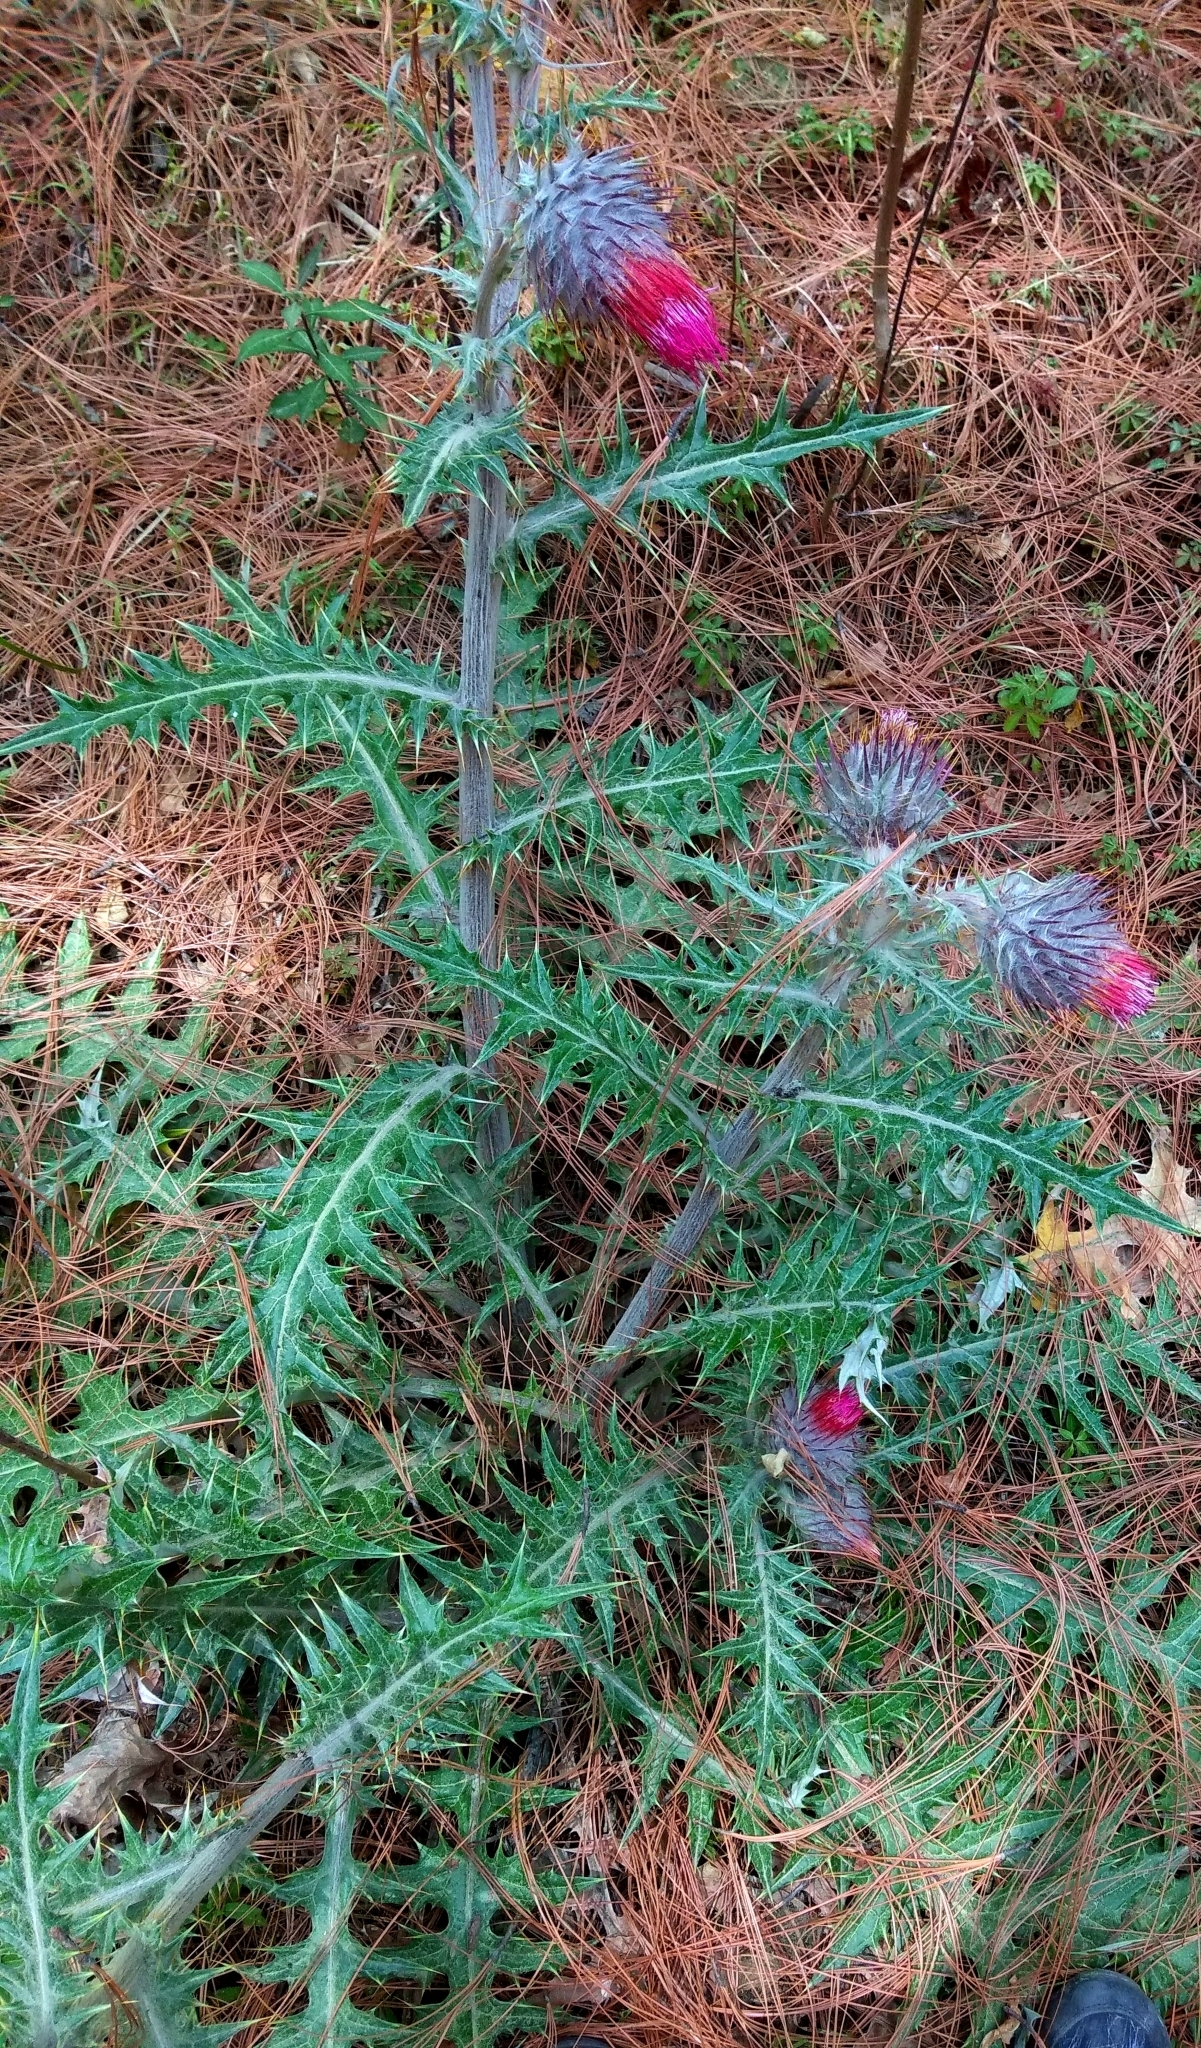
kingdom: Plantae
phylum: Tracheophyta
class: Magnoliopsida
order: Asterales
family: Asteraceae
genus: Cirsium
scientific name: Cirsium ehrenbergii
